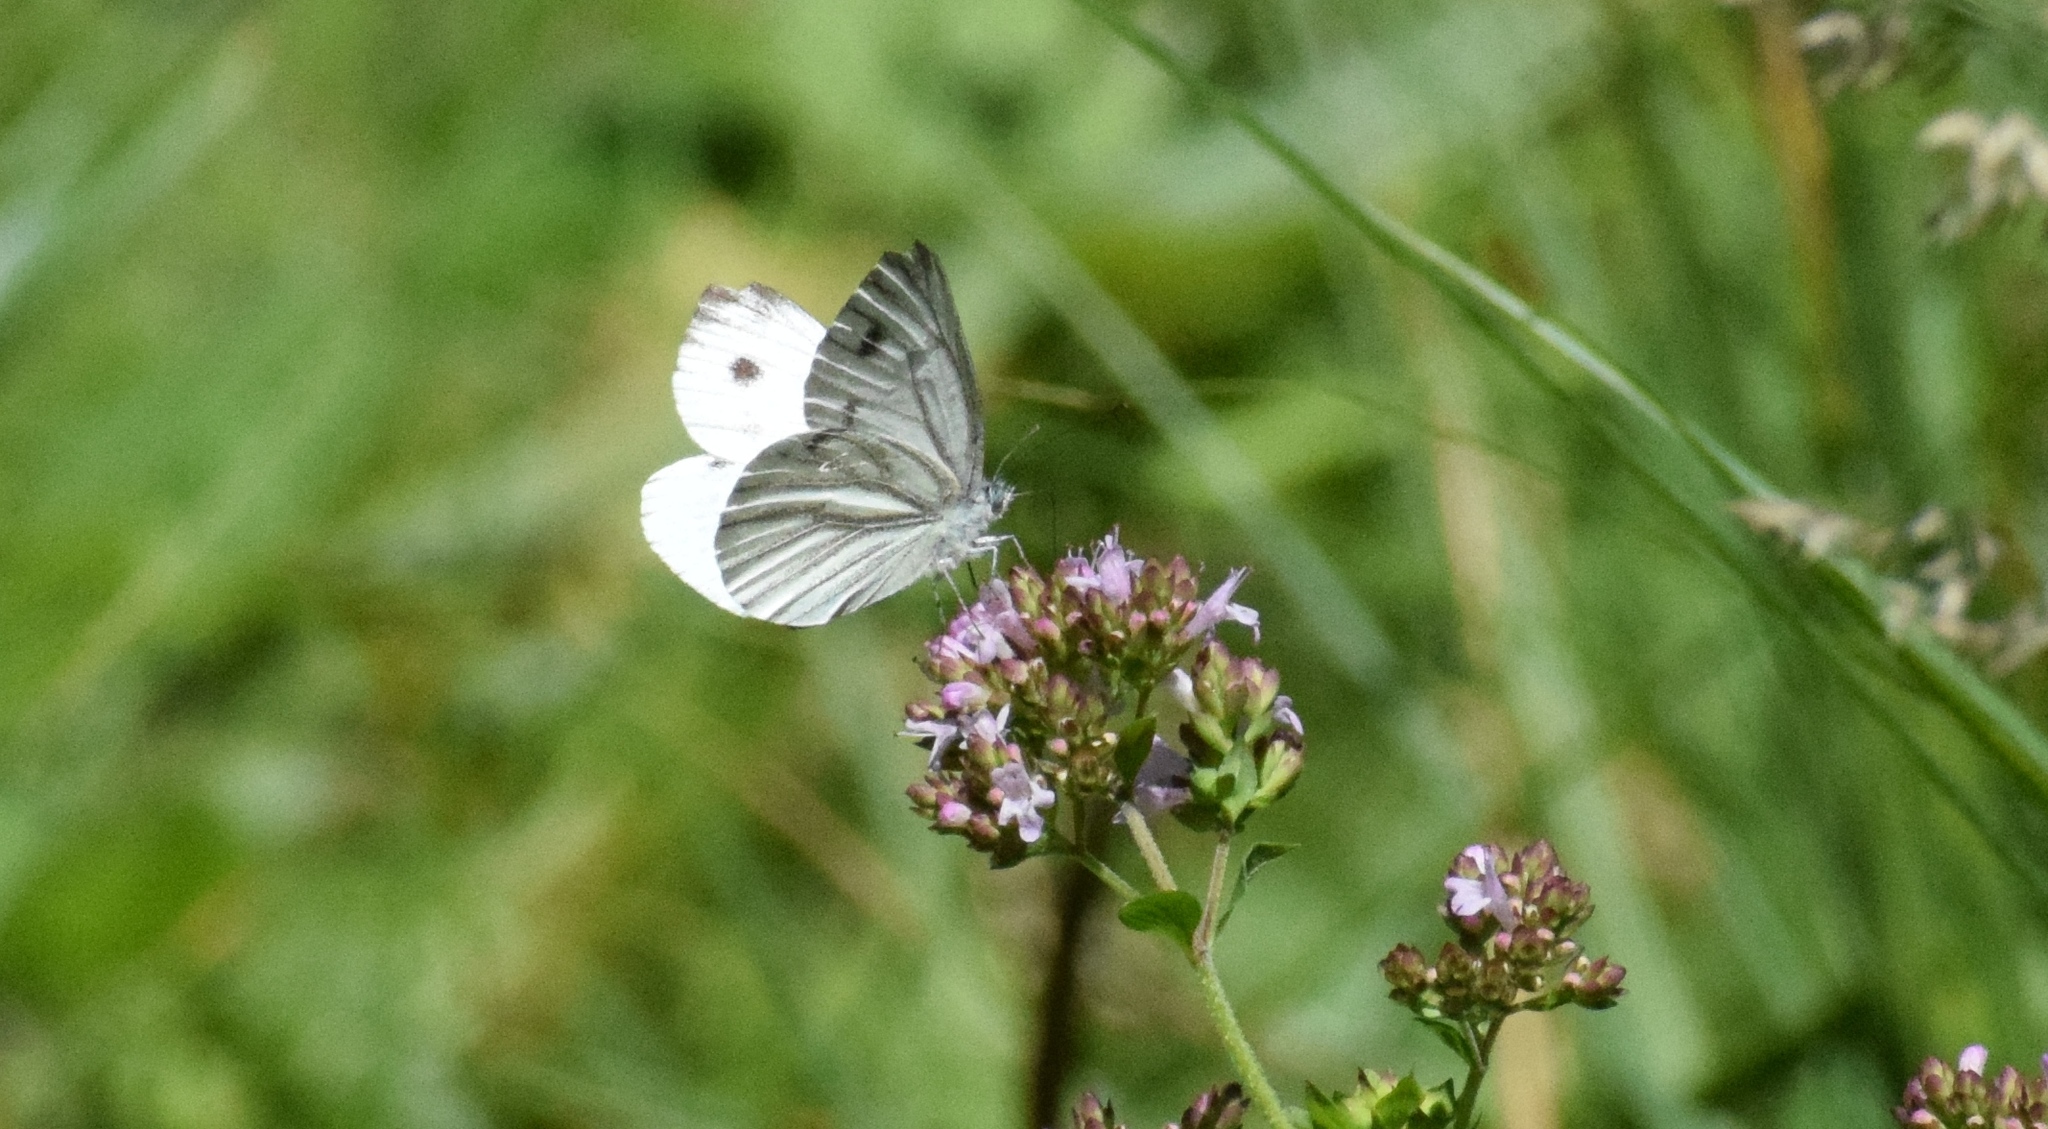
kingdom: Animalia
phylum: Arthropoda
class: Insecta
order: Lepidoptera
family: Pieridae
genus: Pieris
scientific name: Pieris napi
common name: Green-veined white
